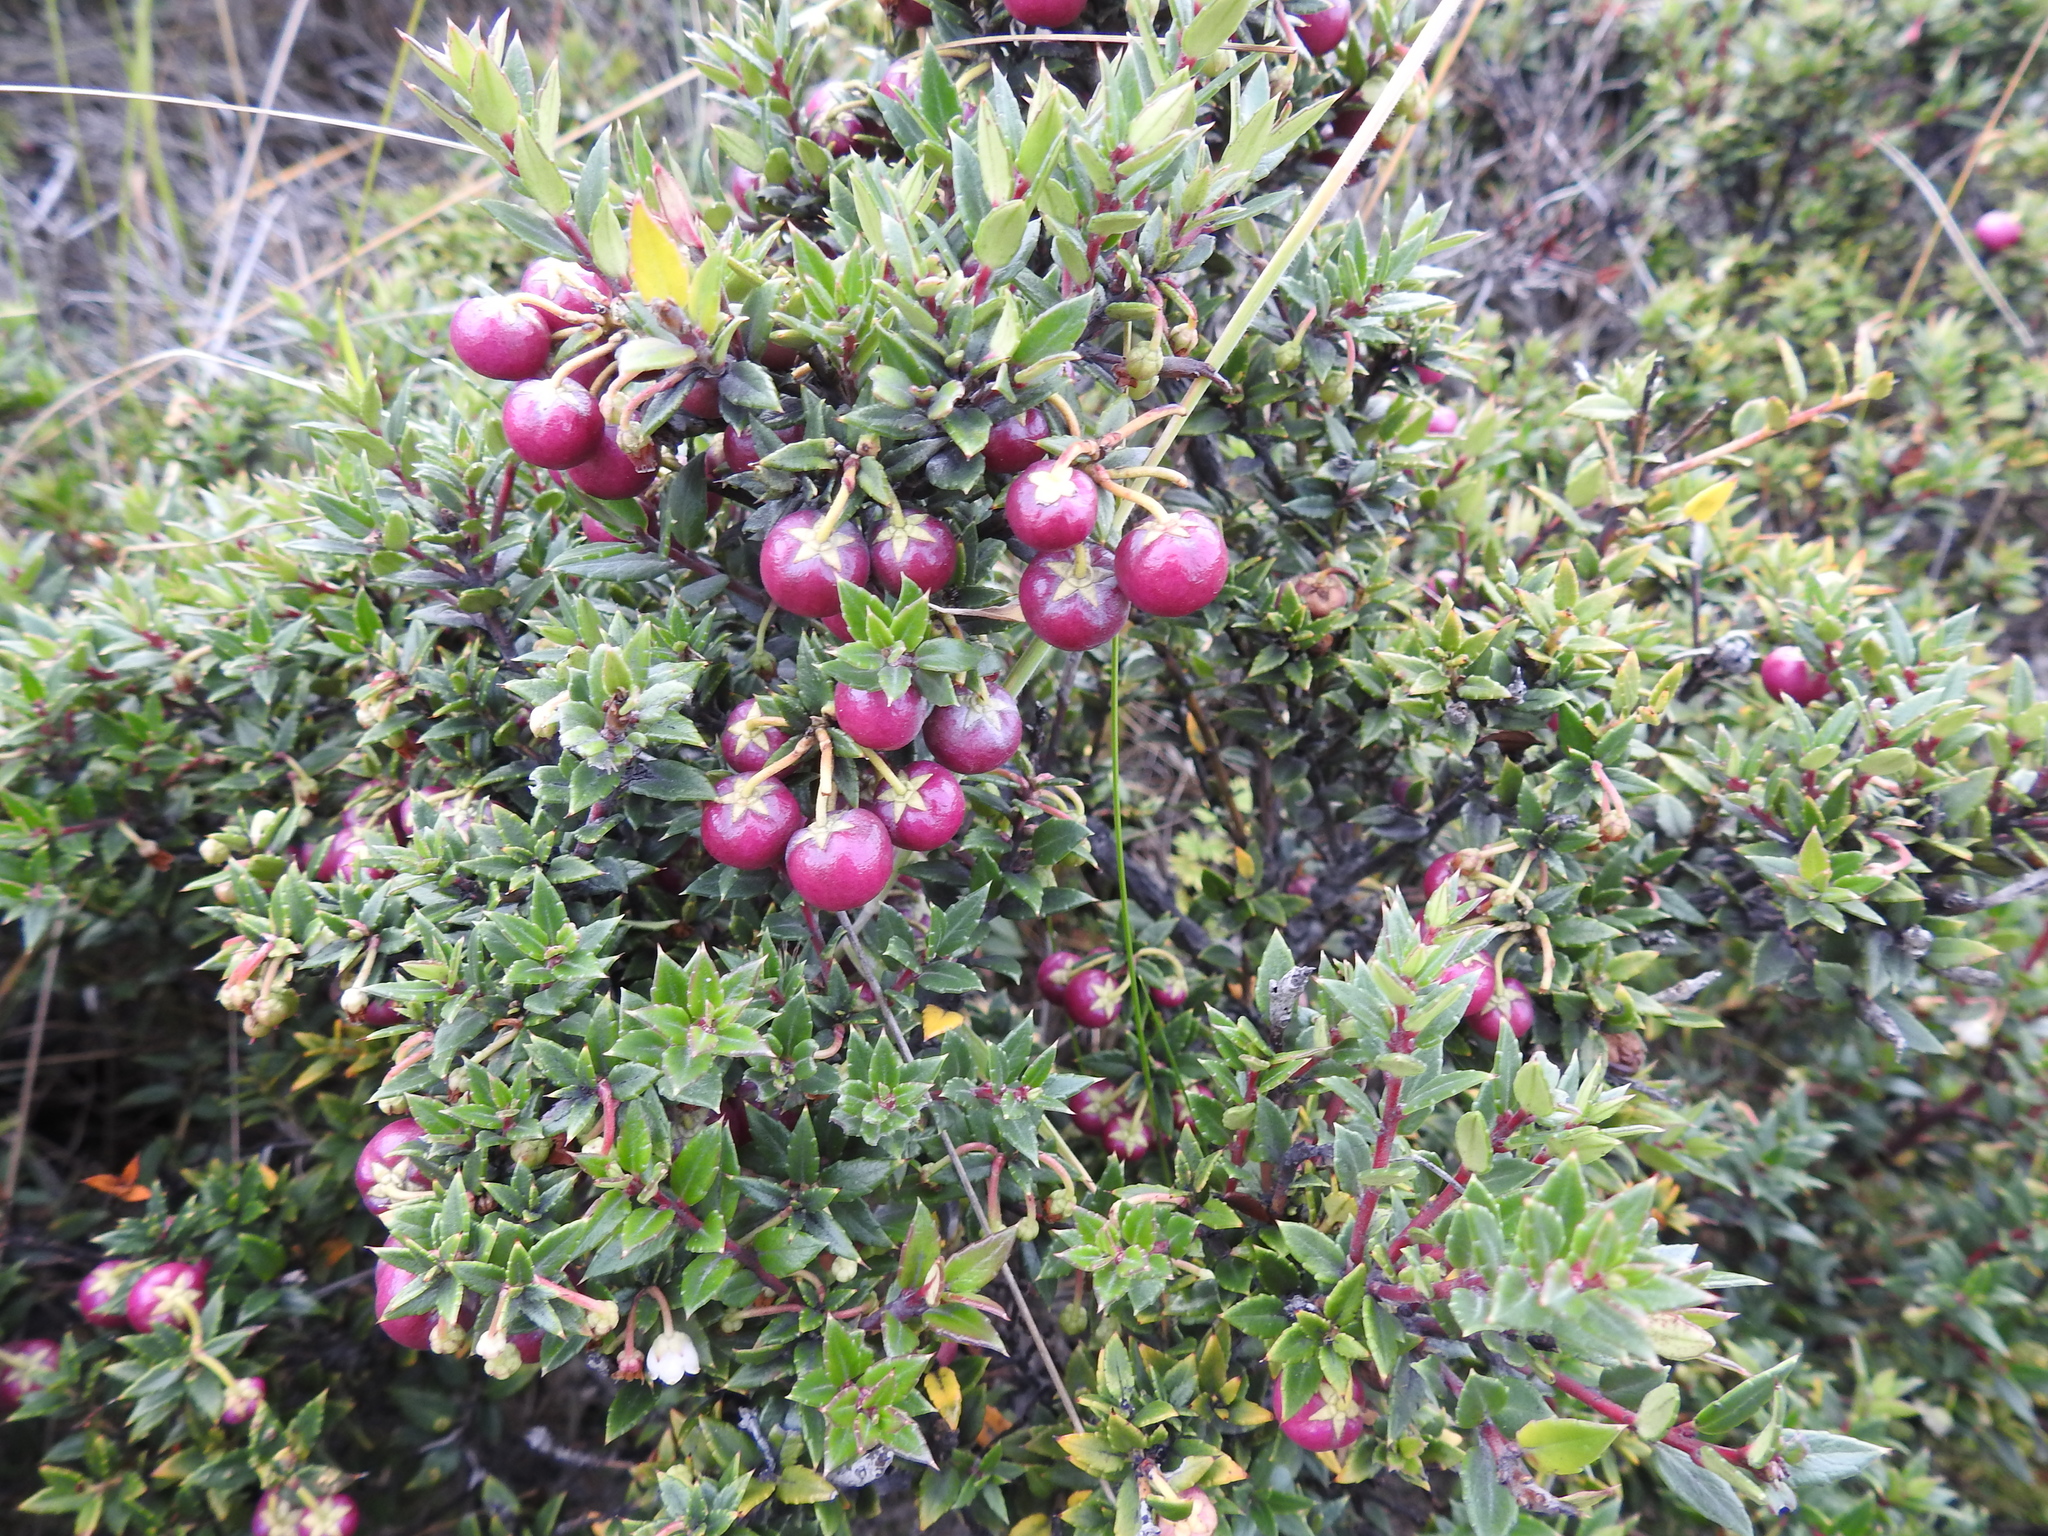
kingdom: Plantae
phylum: Tracheophyta
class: Magnoliopsida
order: Ericales
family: Ericaceae
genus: Gaultheria
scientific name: Gaultheria mucronata
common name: Prickly heath
